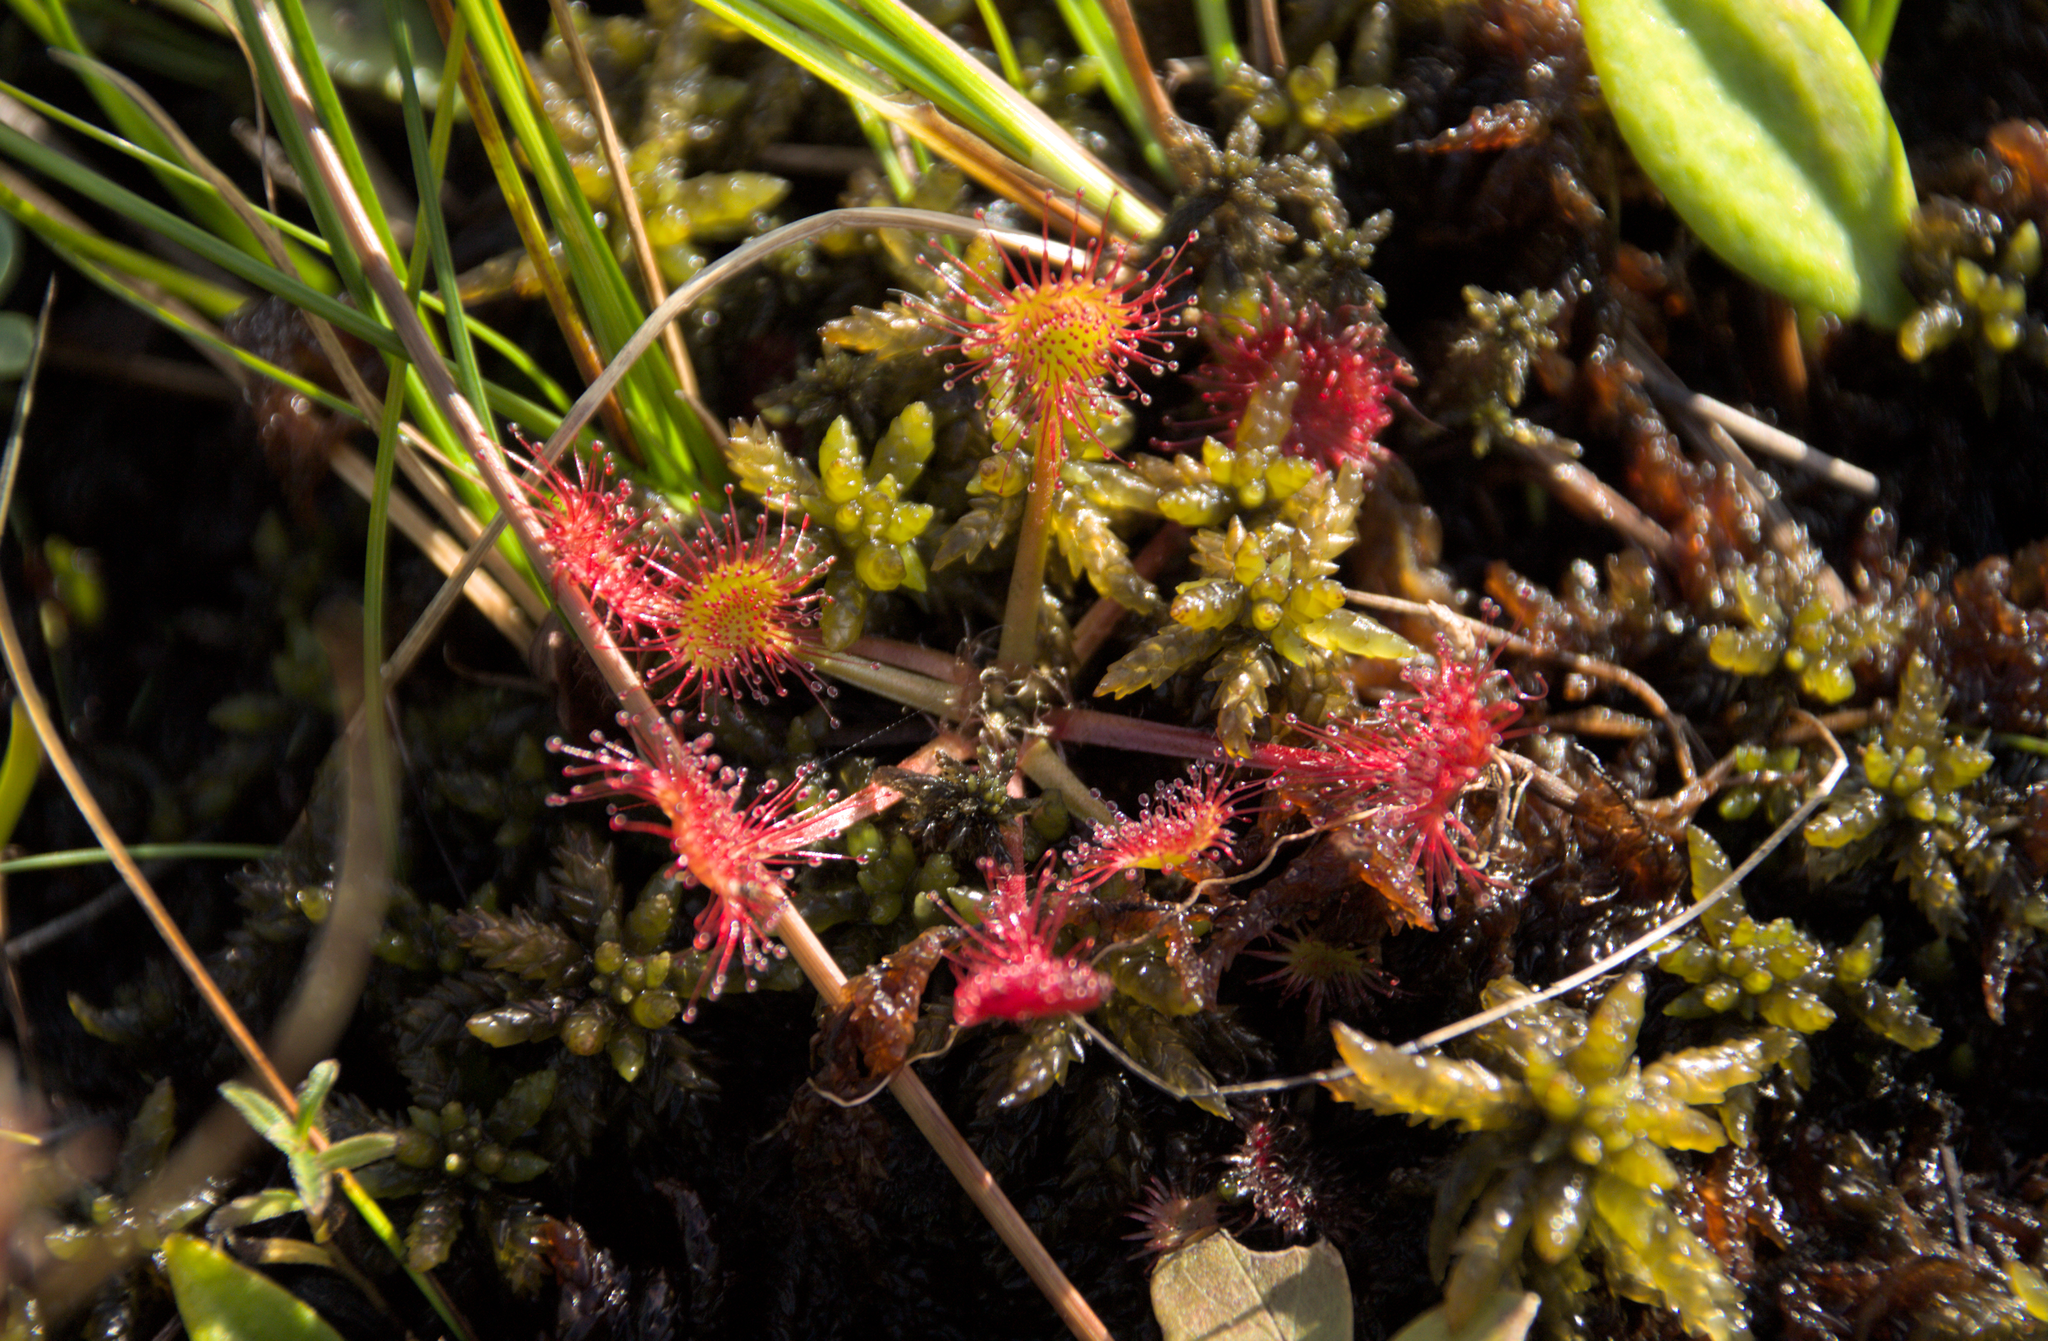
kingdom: Plantae
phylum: Tracheophyta
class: Magnoliopsida
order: Caryophyllales
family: Droseraceae
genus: Drosera
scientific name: Drosera rotundifolia
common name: Round-leaved sundew
